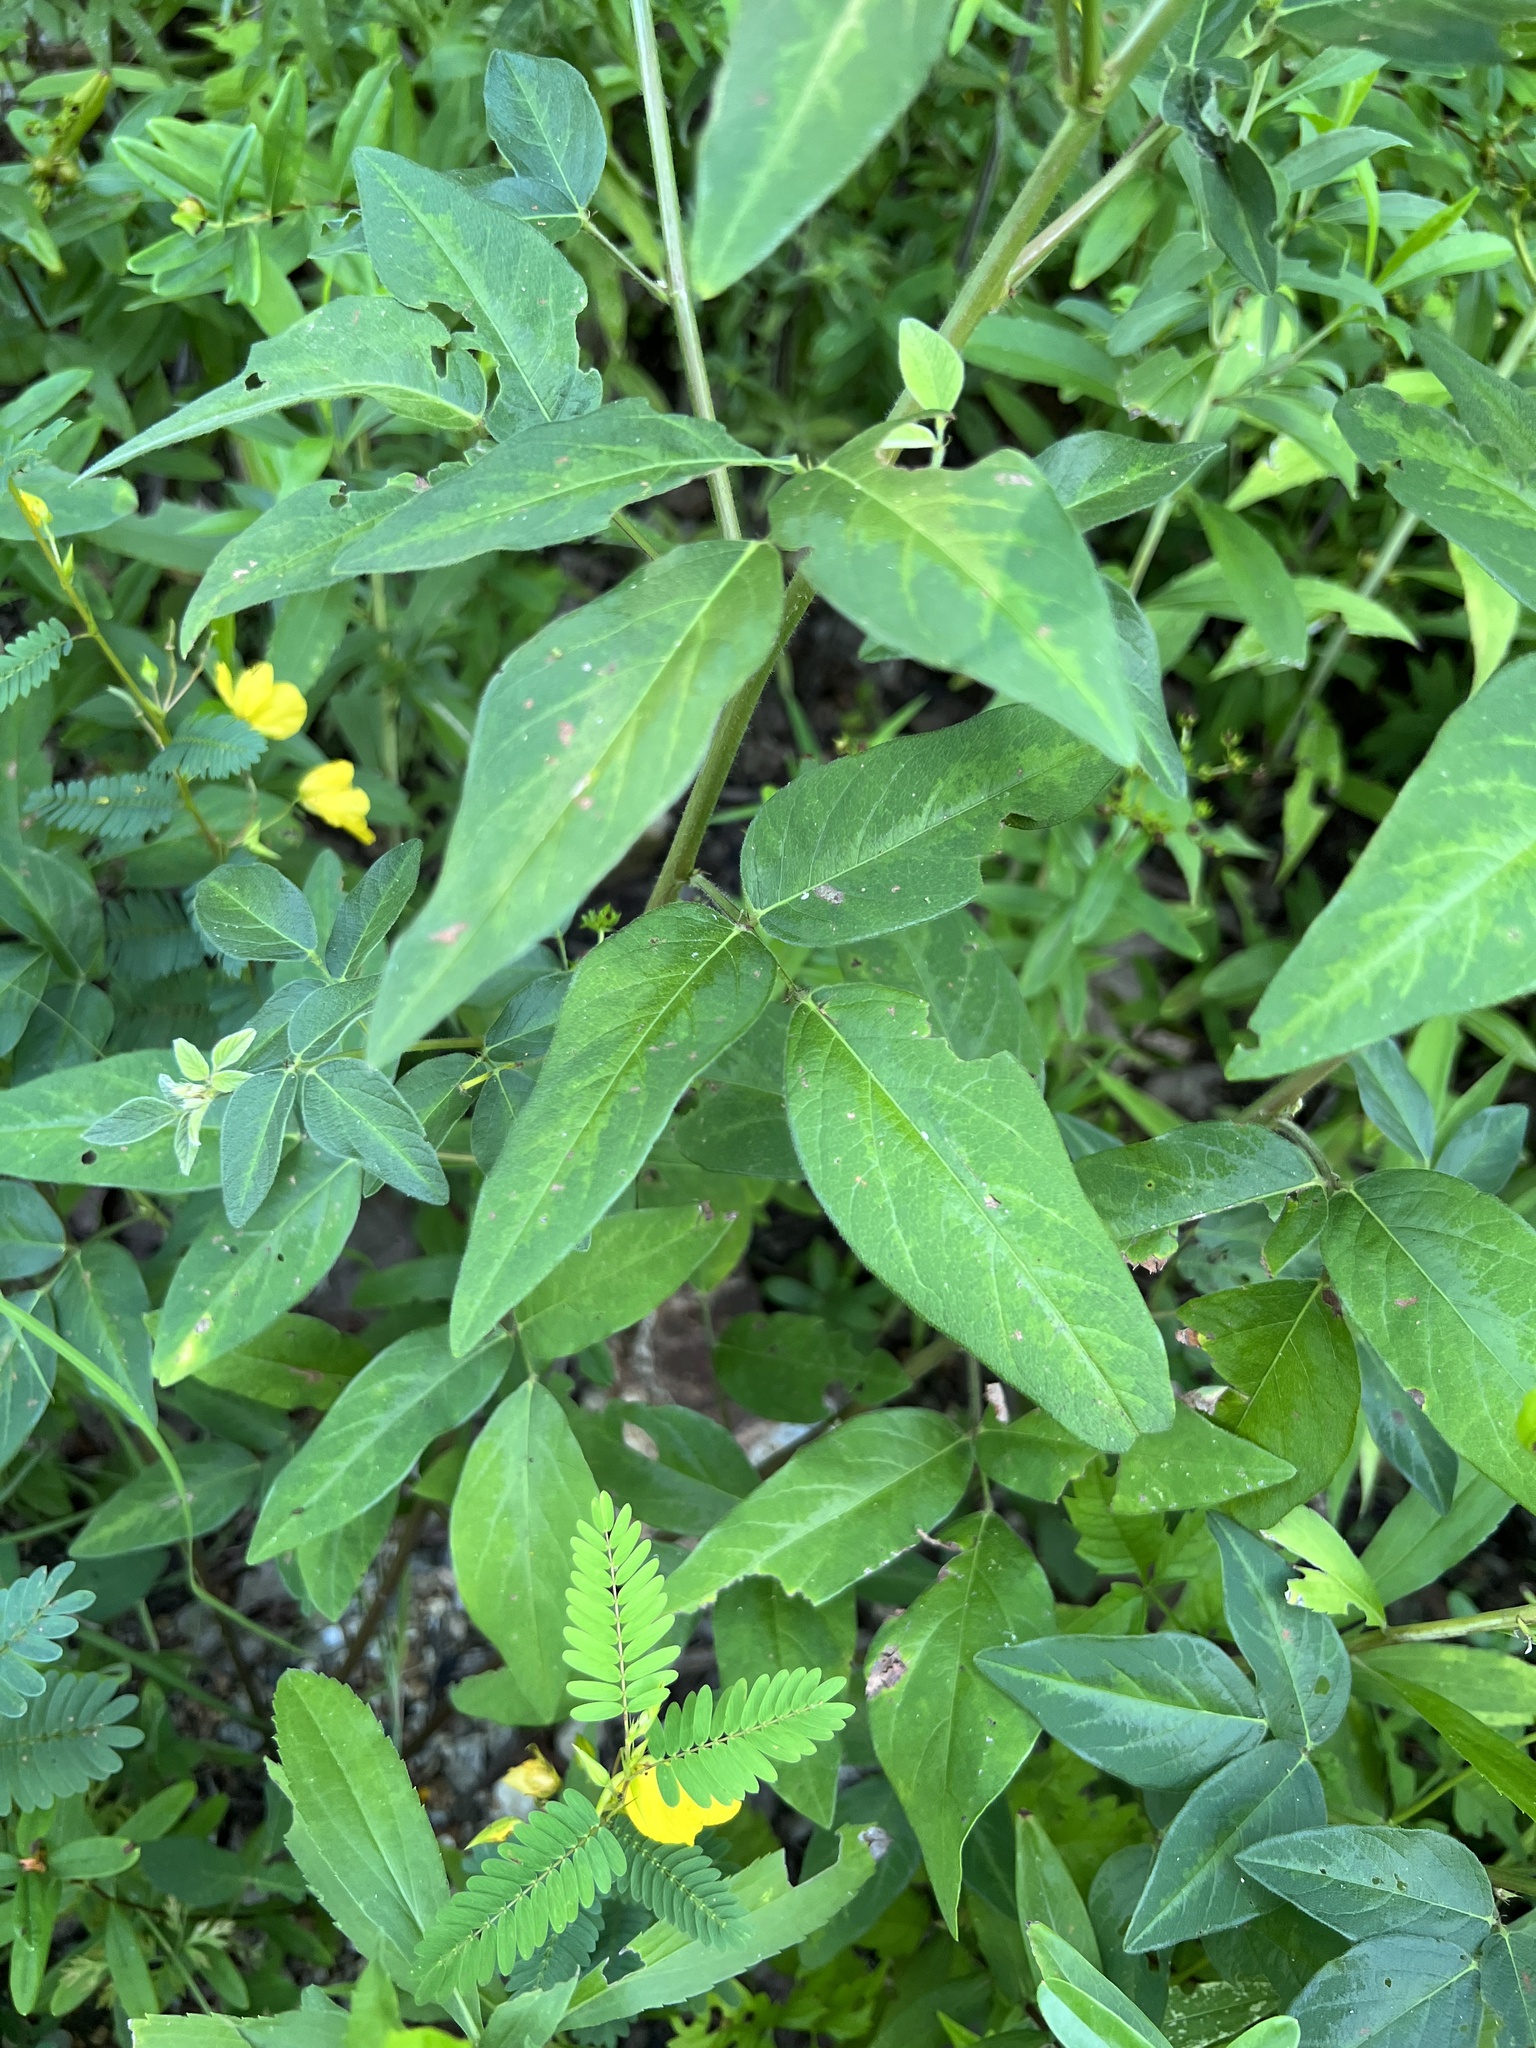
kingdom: Plantae
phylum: Tracheophyta
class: Magnoliopsida
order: Fabales
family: Fabaceae
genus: Desmodium
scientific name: Desmodium paniculatum
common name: Panicled tick-clover
